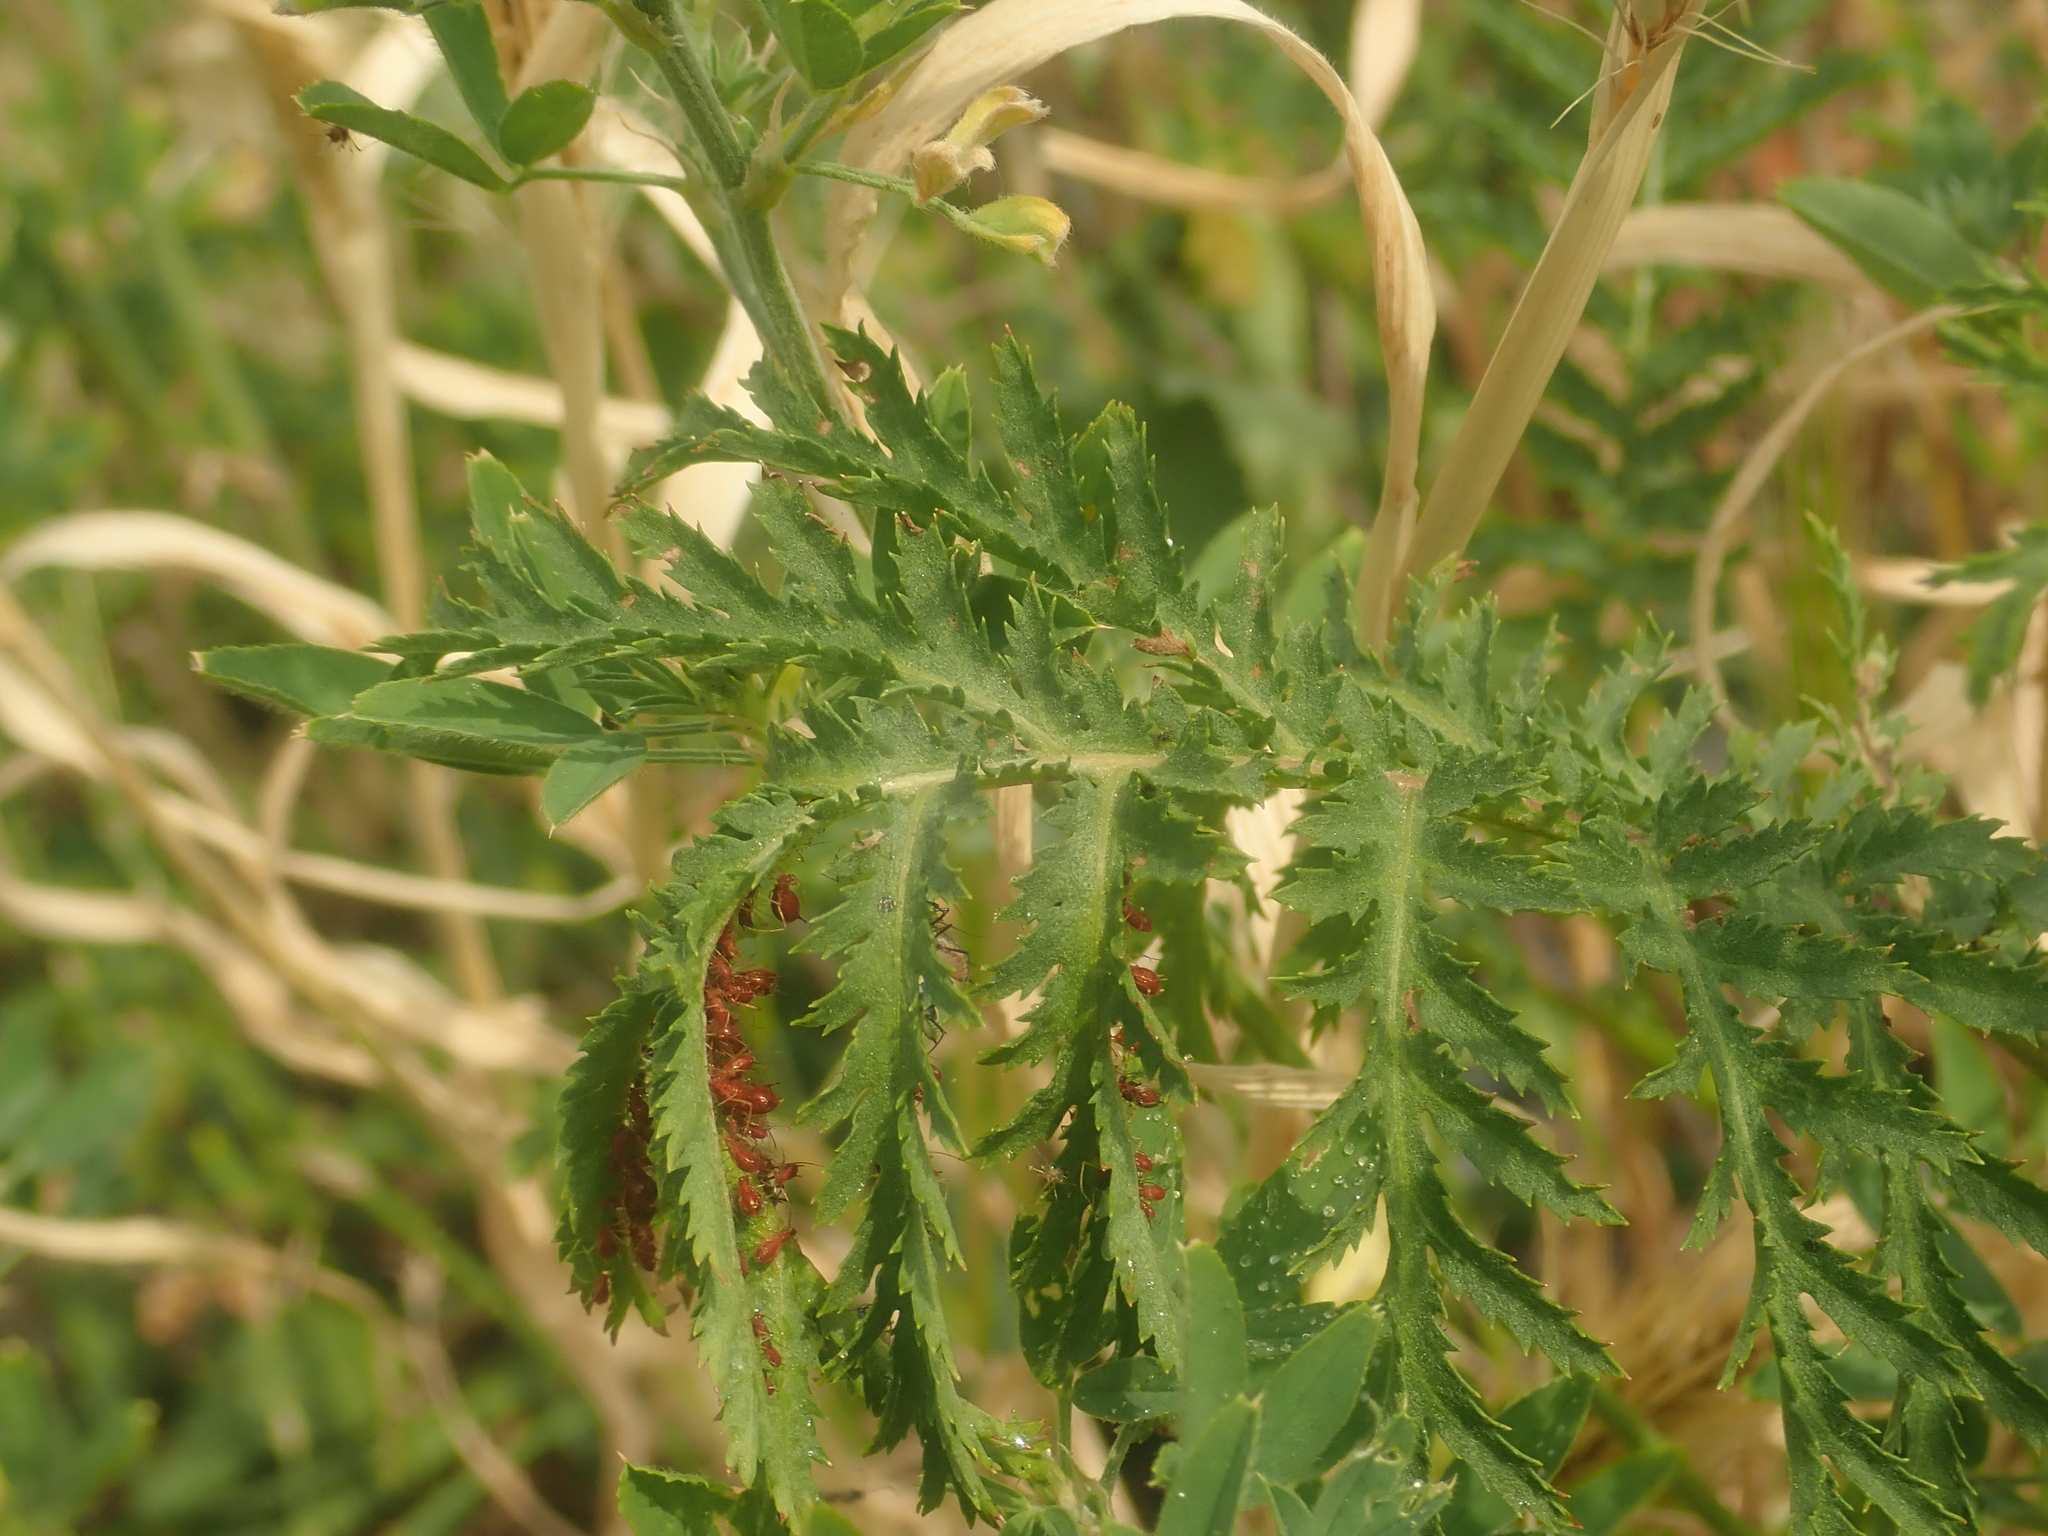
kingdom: Plantae
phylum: Tracheophyta
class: Magnoliopsida
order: Asterales
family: Asteraceae
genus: Tanacetum
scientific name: Tanacetum vulgare
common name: Common tansy
